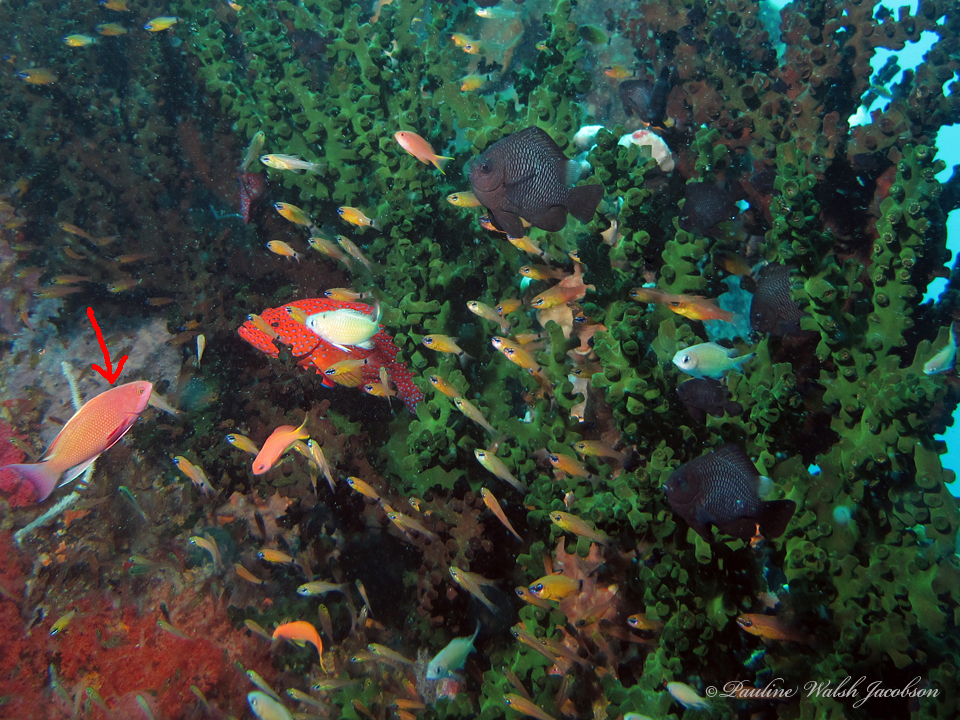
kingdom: Animalia
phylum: Chordata
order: Perciformes
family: Serranidae
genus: Pseudanthias
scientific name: Pseudanthias squamipinnis
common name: Scalefin anthias
